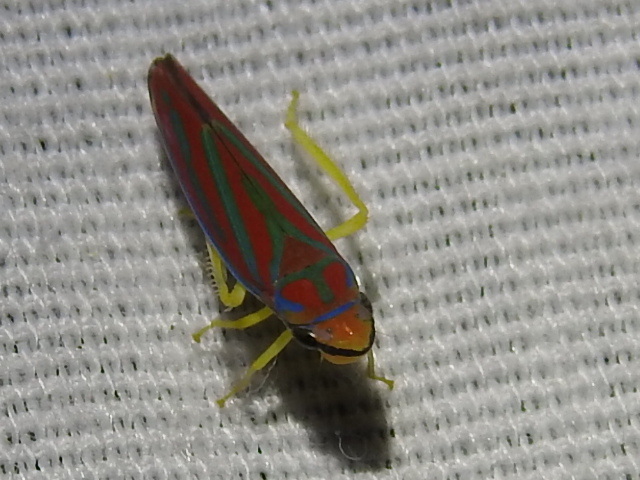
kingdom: Animalia
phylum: Arthropoda
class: Insecta
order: Hemiptera
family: Cicadellidae
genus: Graphocephala
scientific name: Graphocephala coccinea
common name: Candy-striped leafhopper
